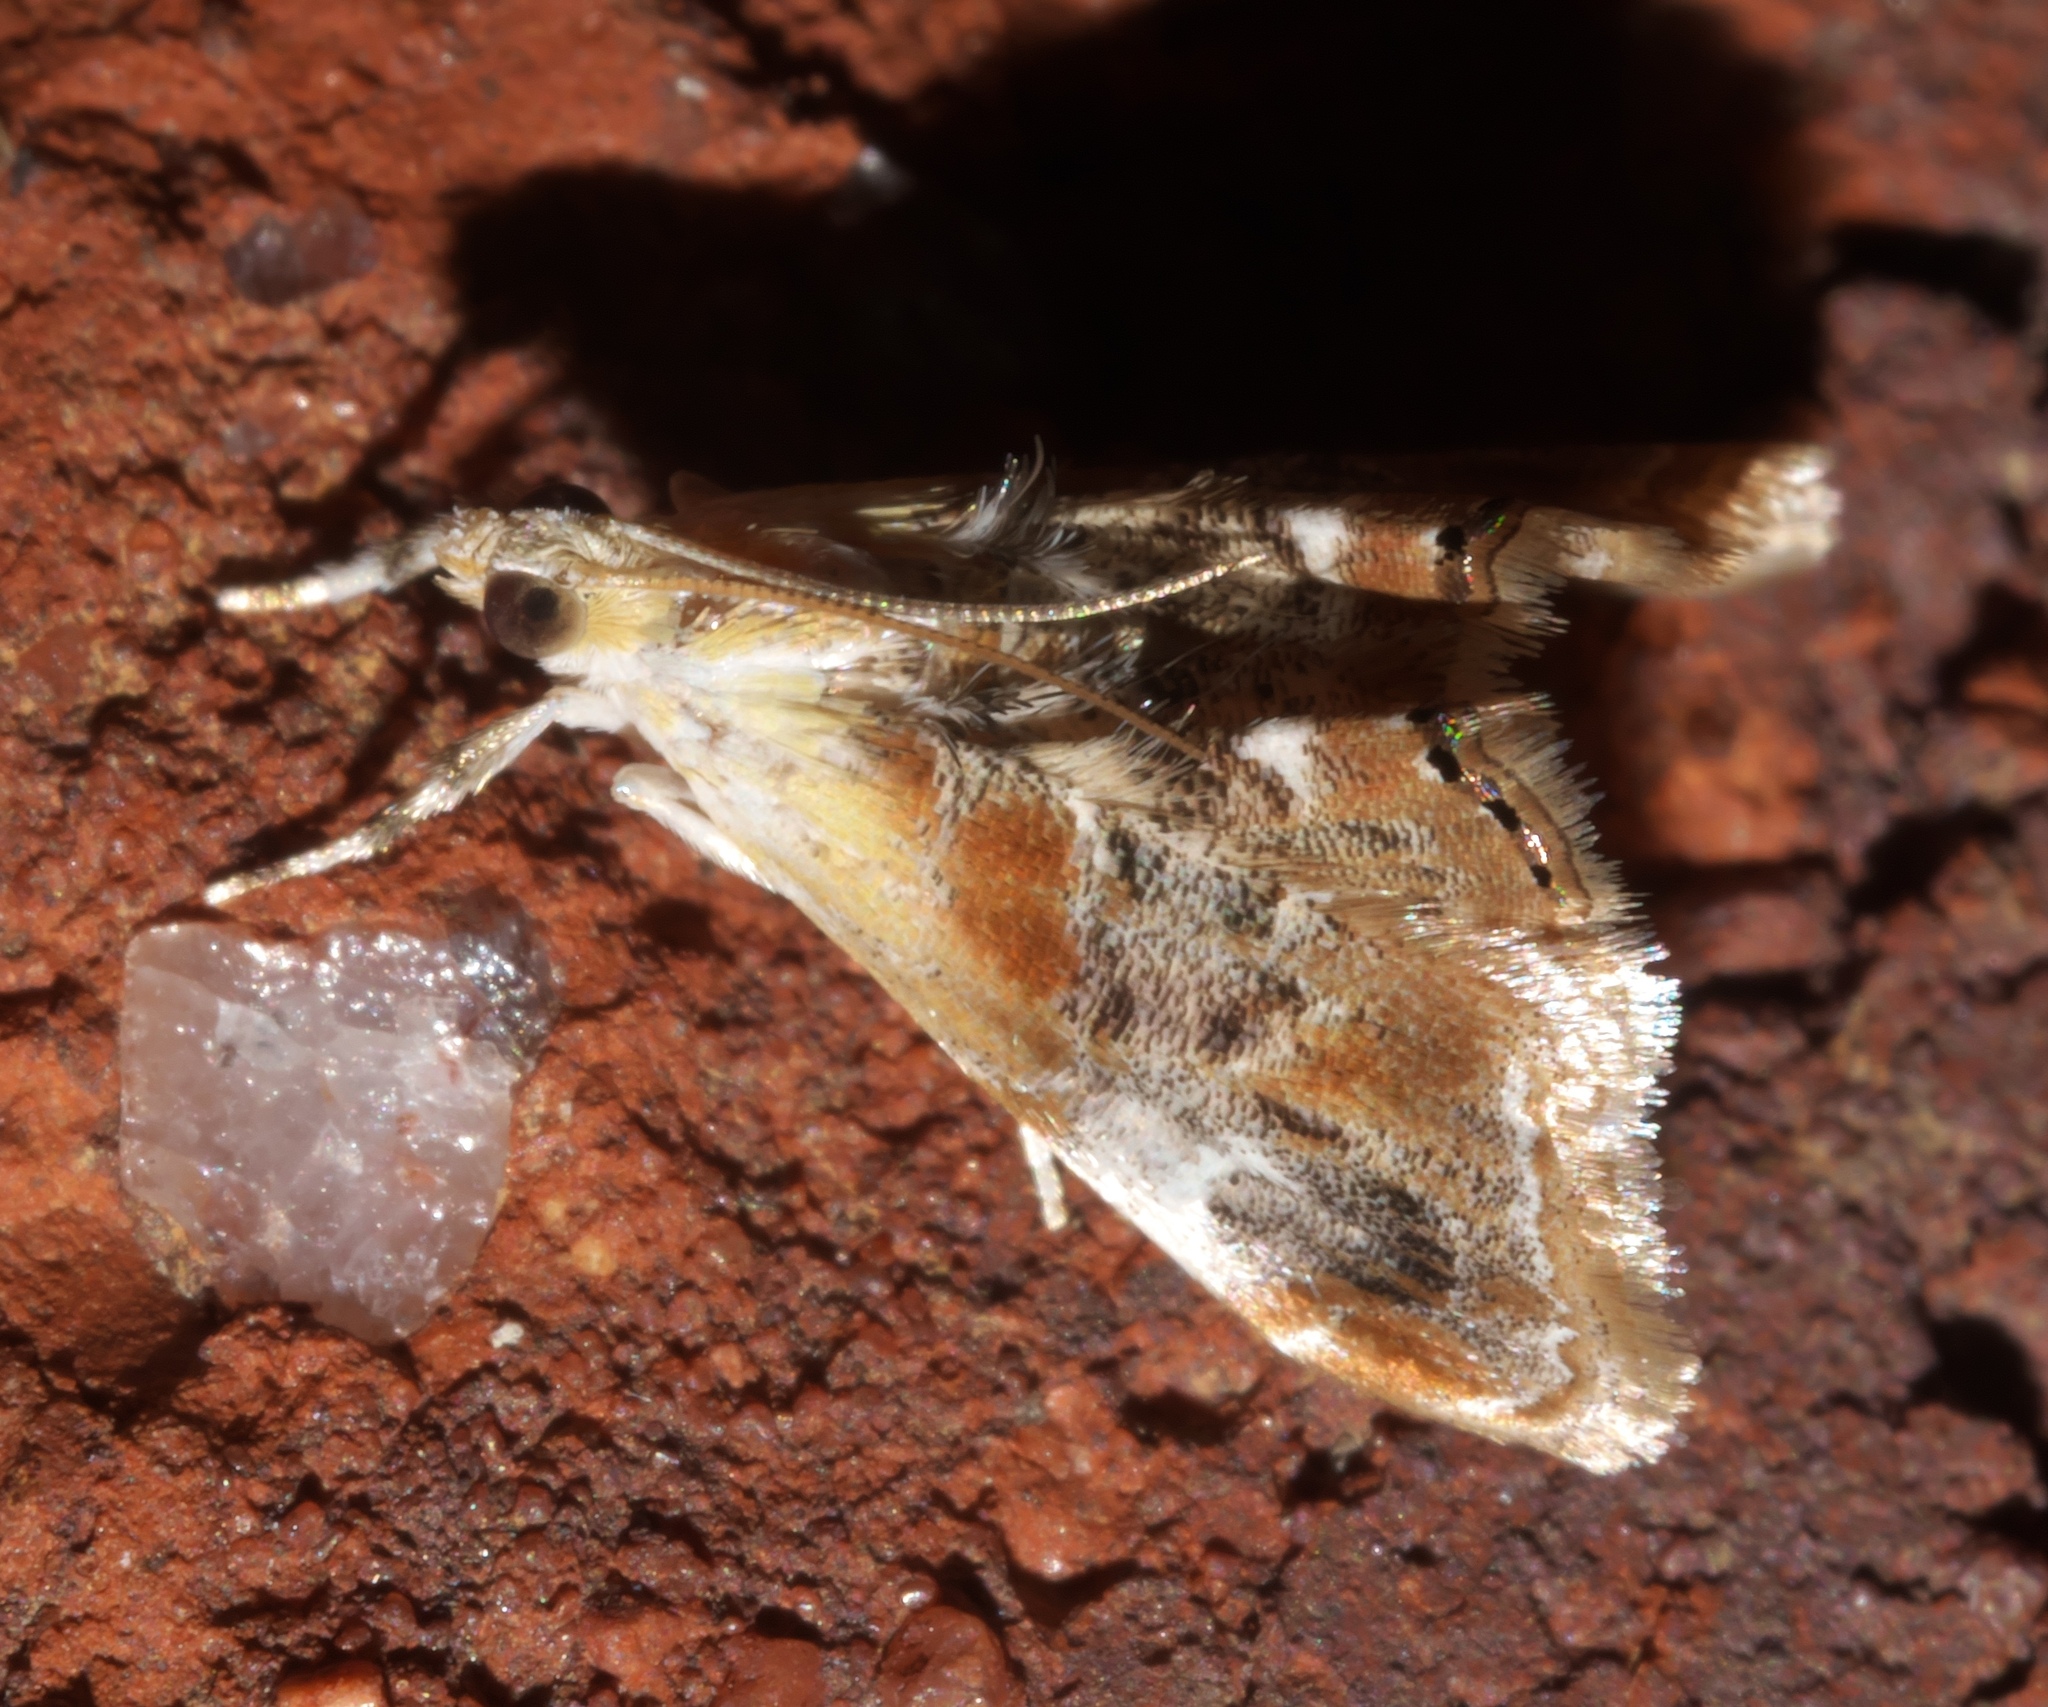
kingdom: Animalia
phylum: Arthropoda
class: Insecta
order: Lepidoptera
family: Crambidae
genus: Dicymolomia
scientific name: Dicymolomia julianalis
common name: Julia's dicymolomia moth
